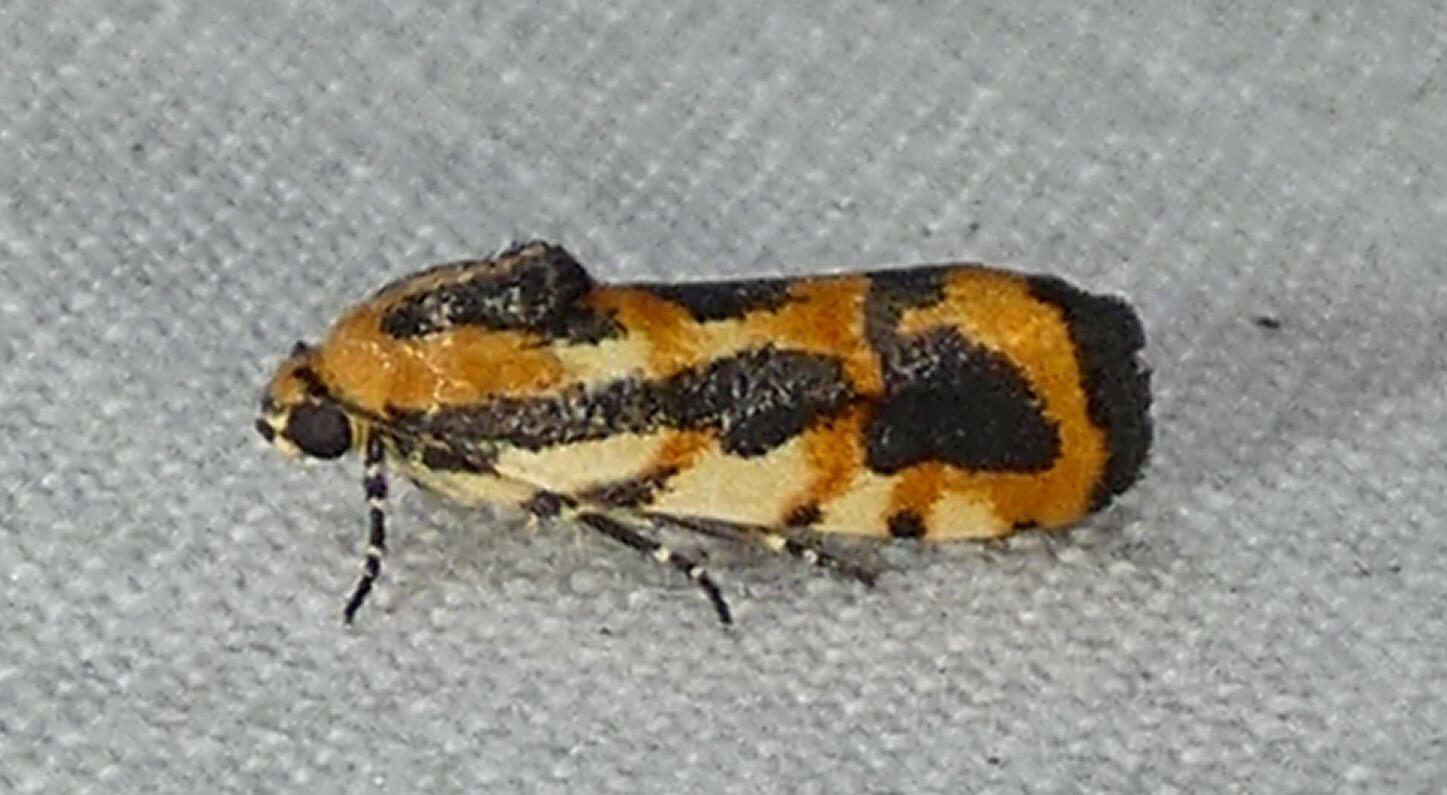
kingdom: Animalia
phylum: Arthropoda
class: Insecta
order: Lepidoptera
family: Noctuidae
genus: Acontia
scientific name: Acontia leo
